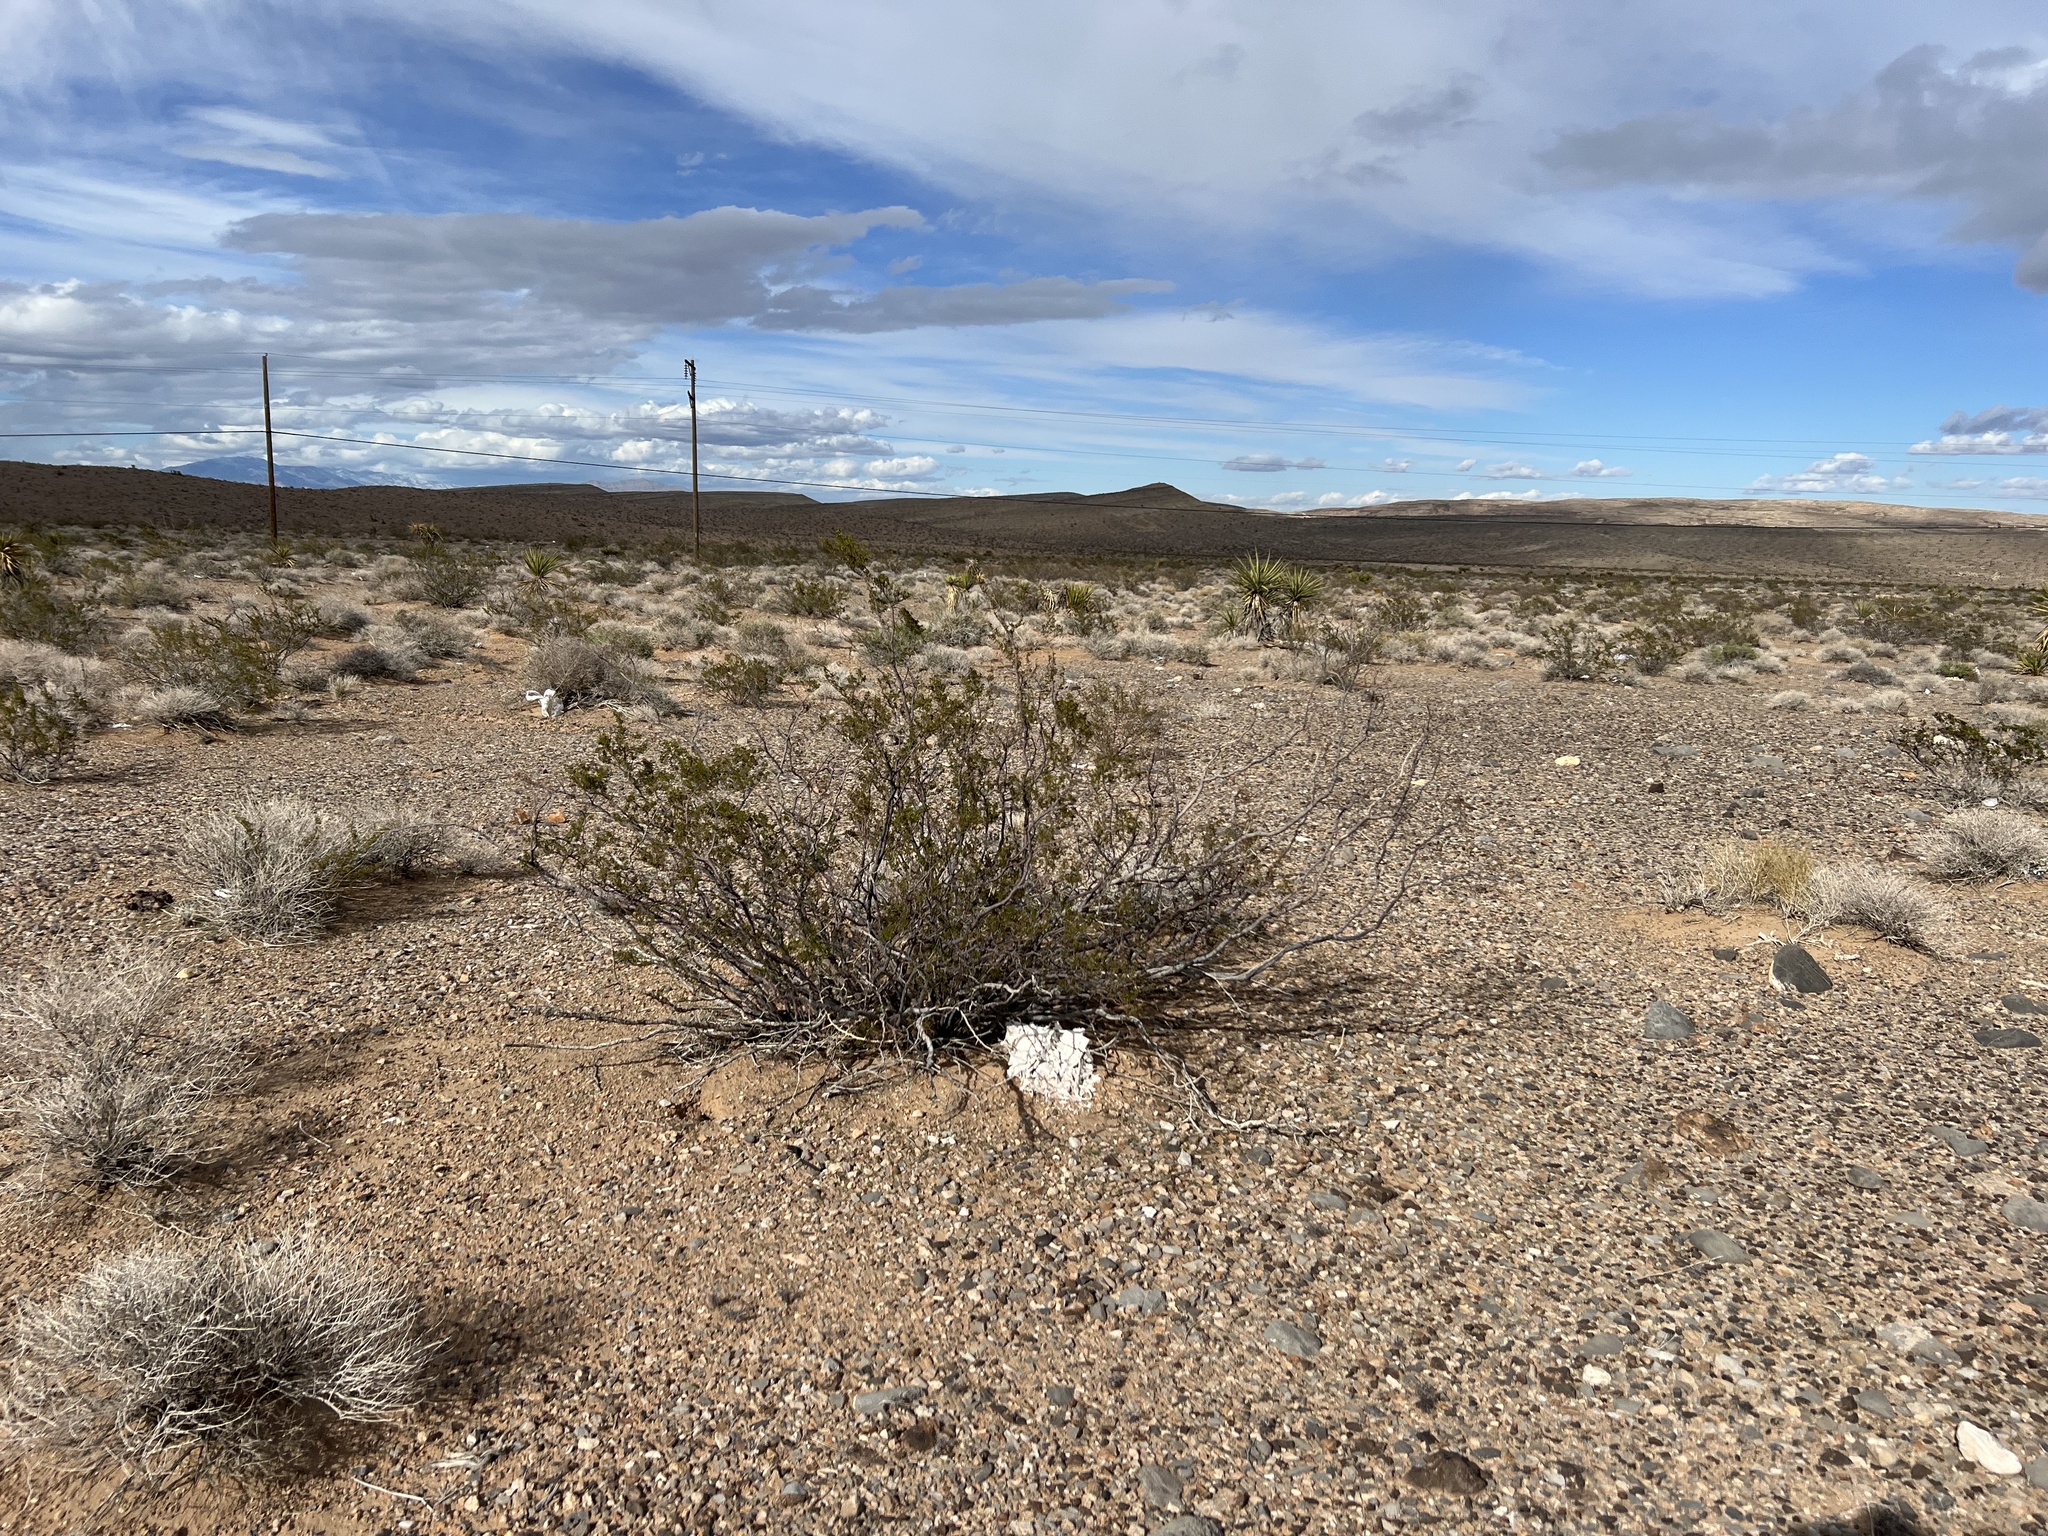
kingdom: Plantae
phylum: Tracheophyta
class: Magnoliopsida
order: Zygophyllales
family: Zygophyllaceae
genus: Larrea
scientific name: Larrea tridentata
